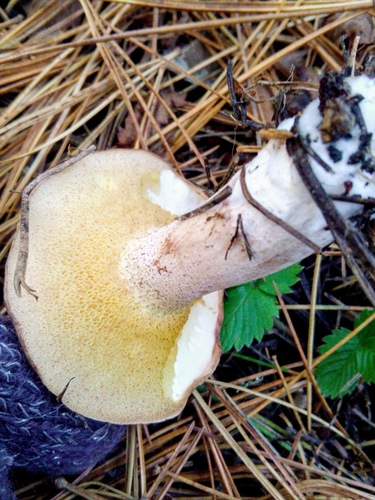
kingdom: Fungi
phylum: Basidiomycota
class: Agaricomycetes
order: Boletales
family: Suillaceae
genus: Suillus
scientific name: Suillus placidus
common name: Slippery white bolete
